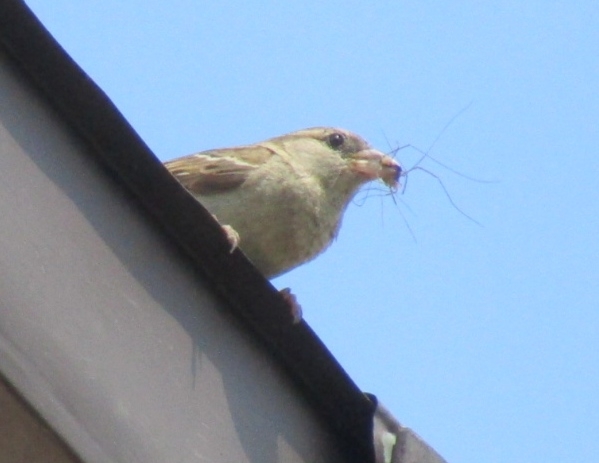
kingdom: Animalia
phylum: Chordata
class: Aves
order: Passeriformes
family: Passeridae
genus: Passer
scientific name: Passer domesticus
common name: House sparrow
